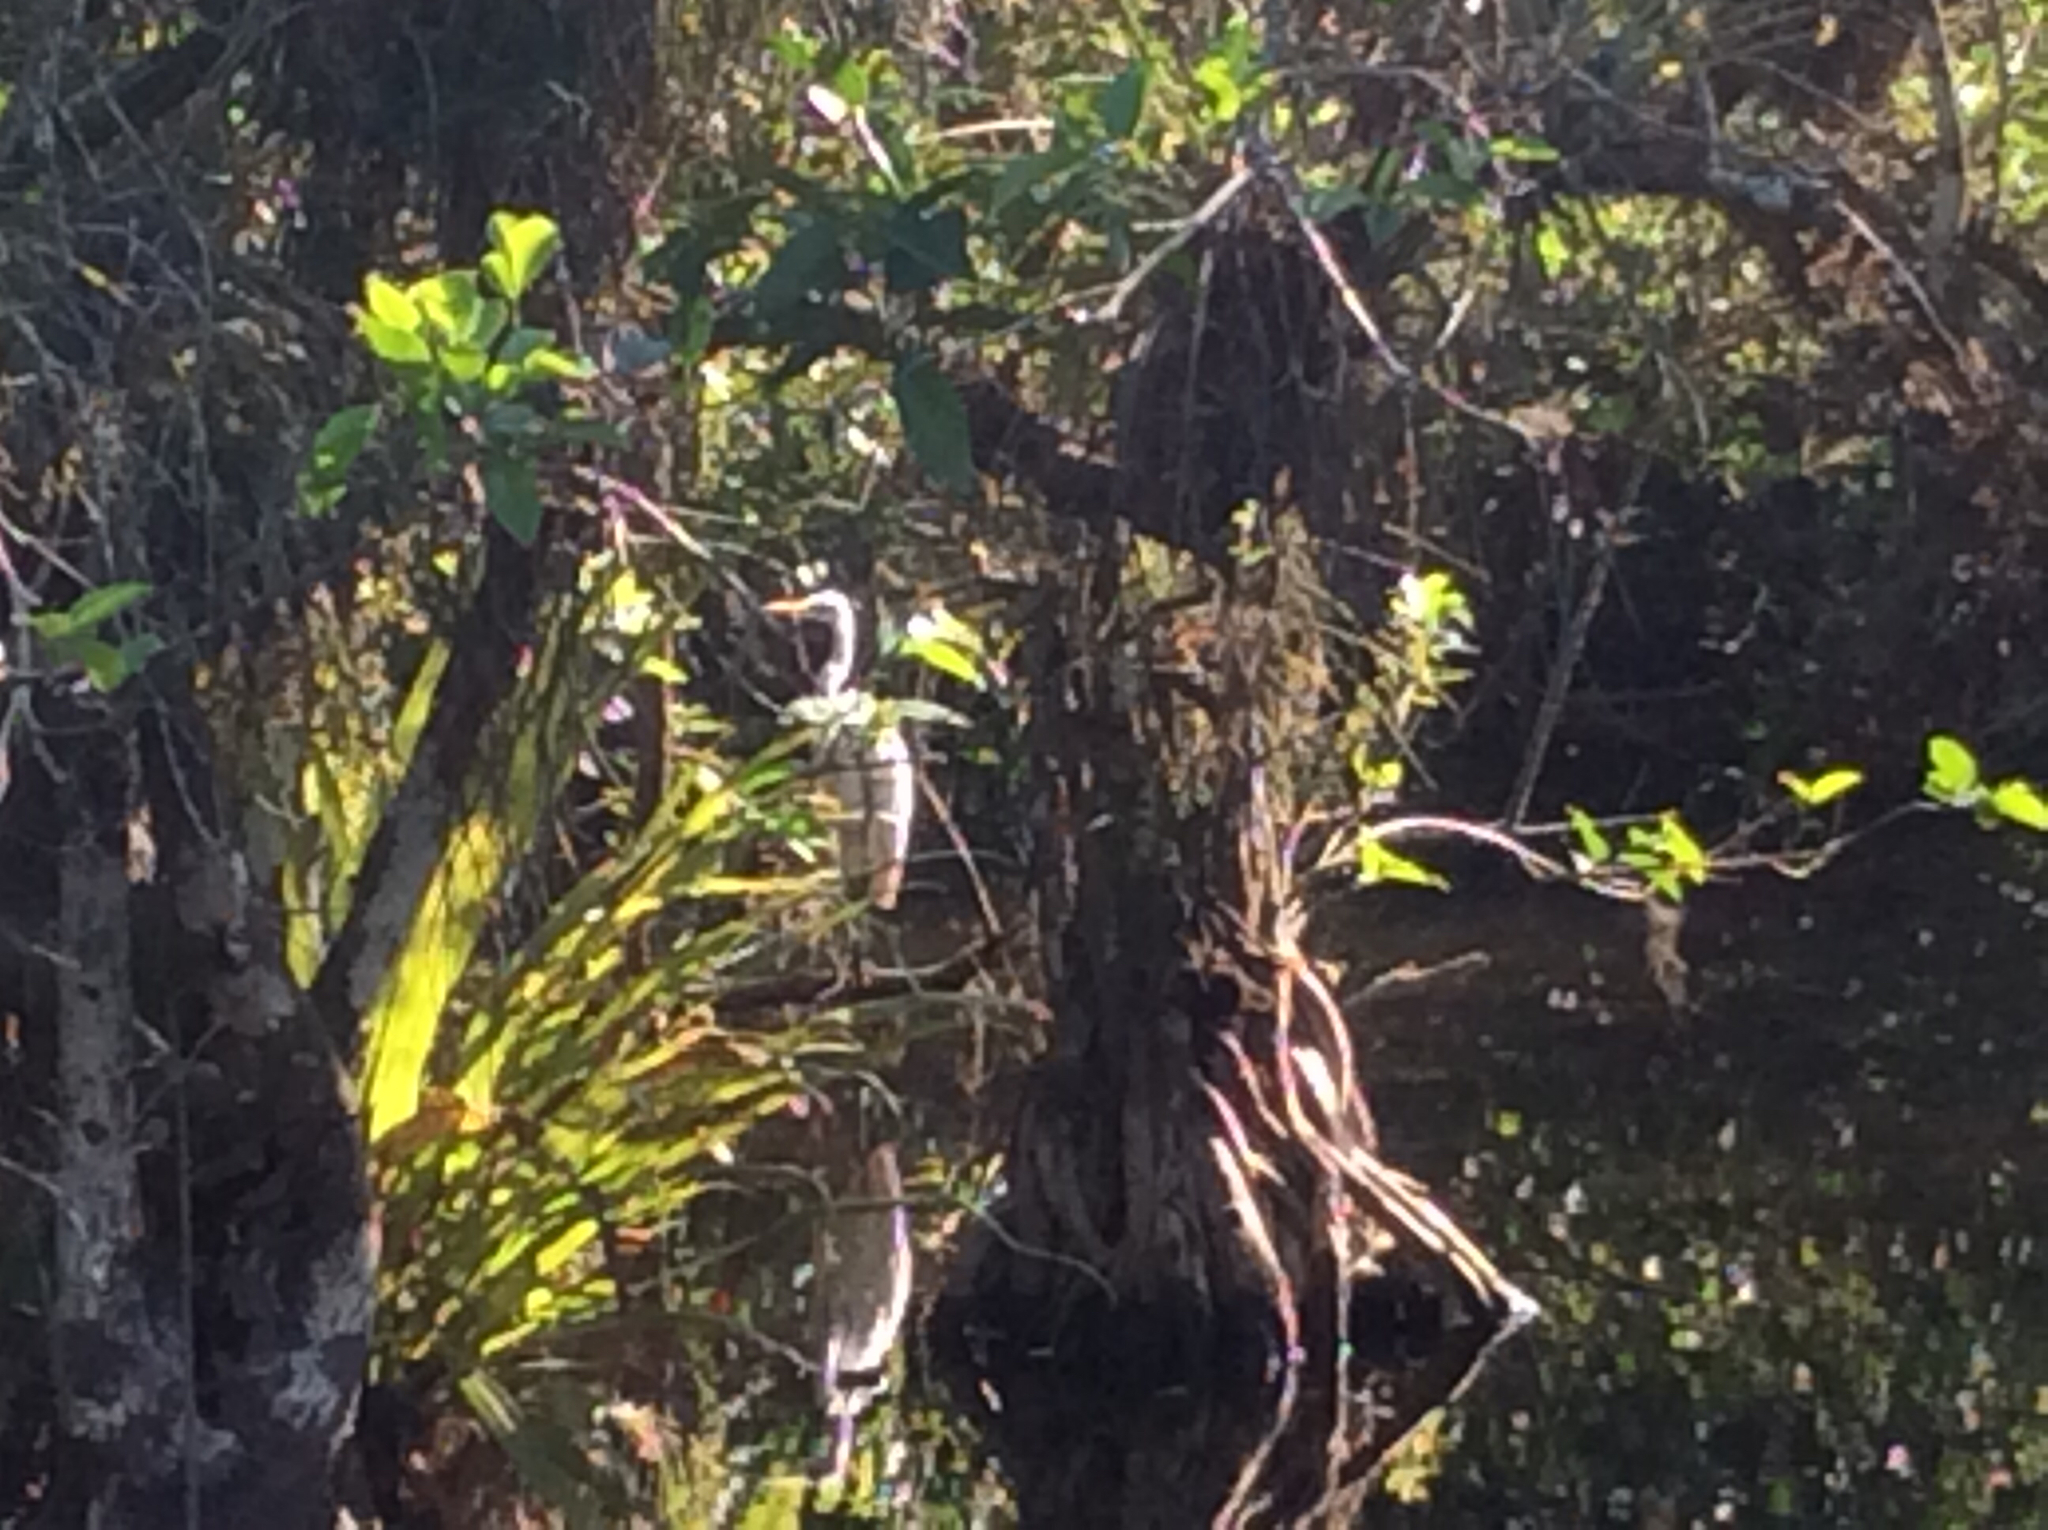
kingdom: Animalia
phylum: Chordata
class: Aves
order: Pelecaniformes
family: Ardeidae
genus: Ardea
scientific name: Ardea alba
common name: Great egret
